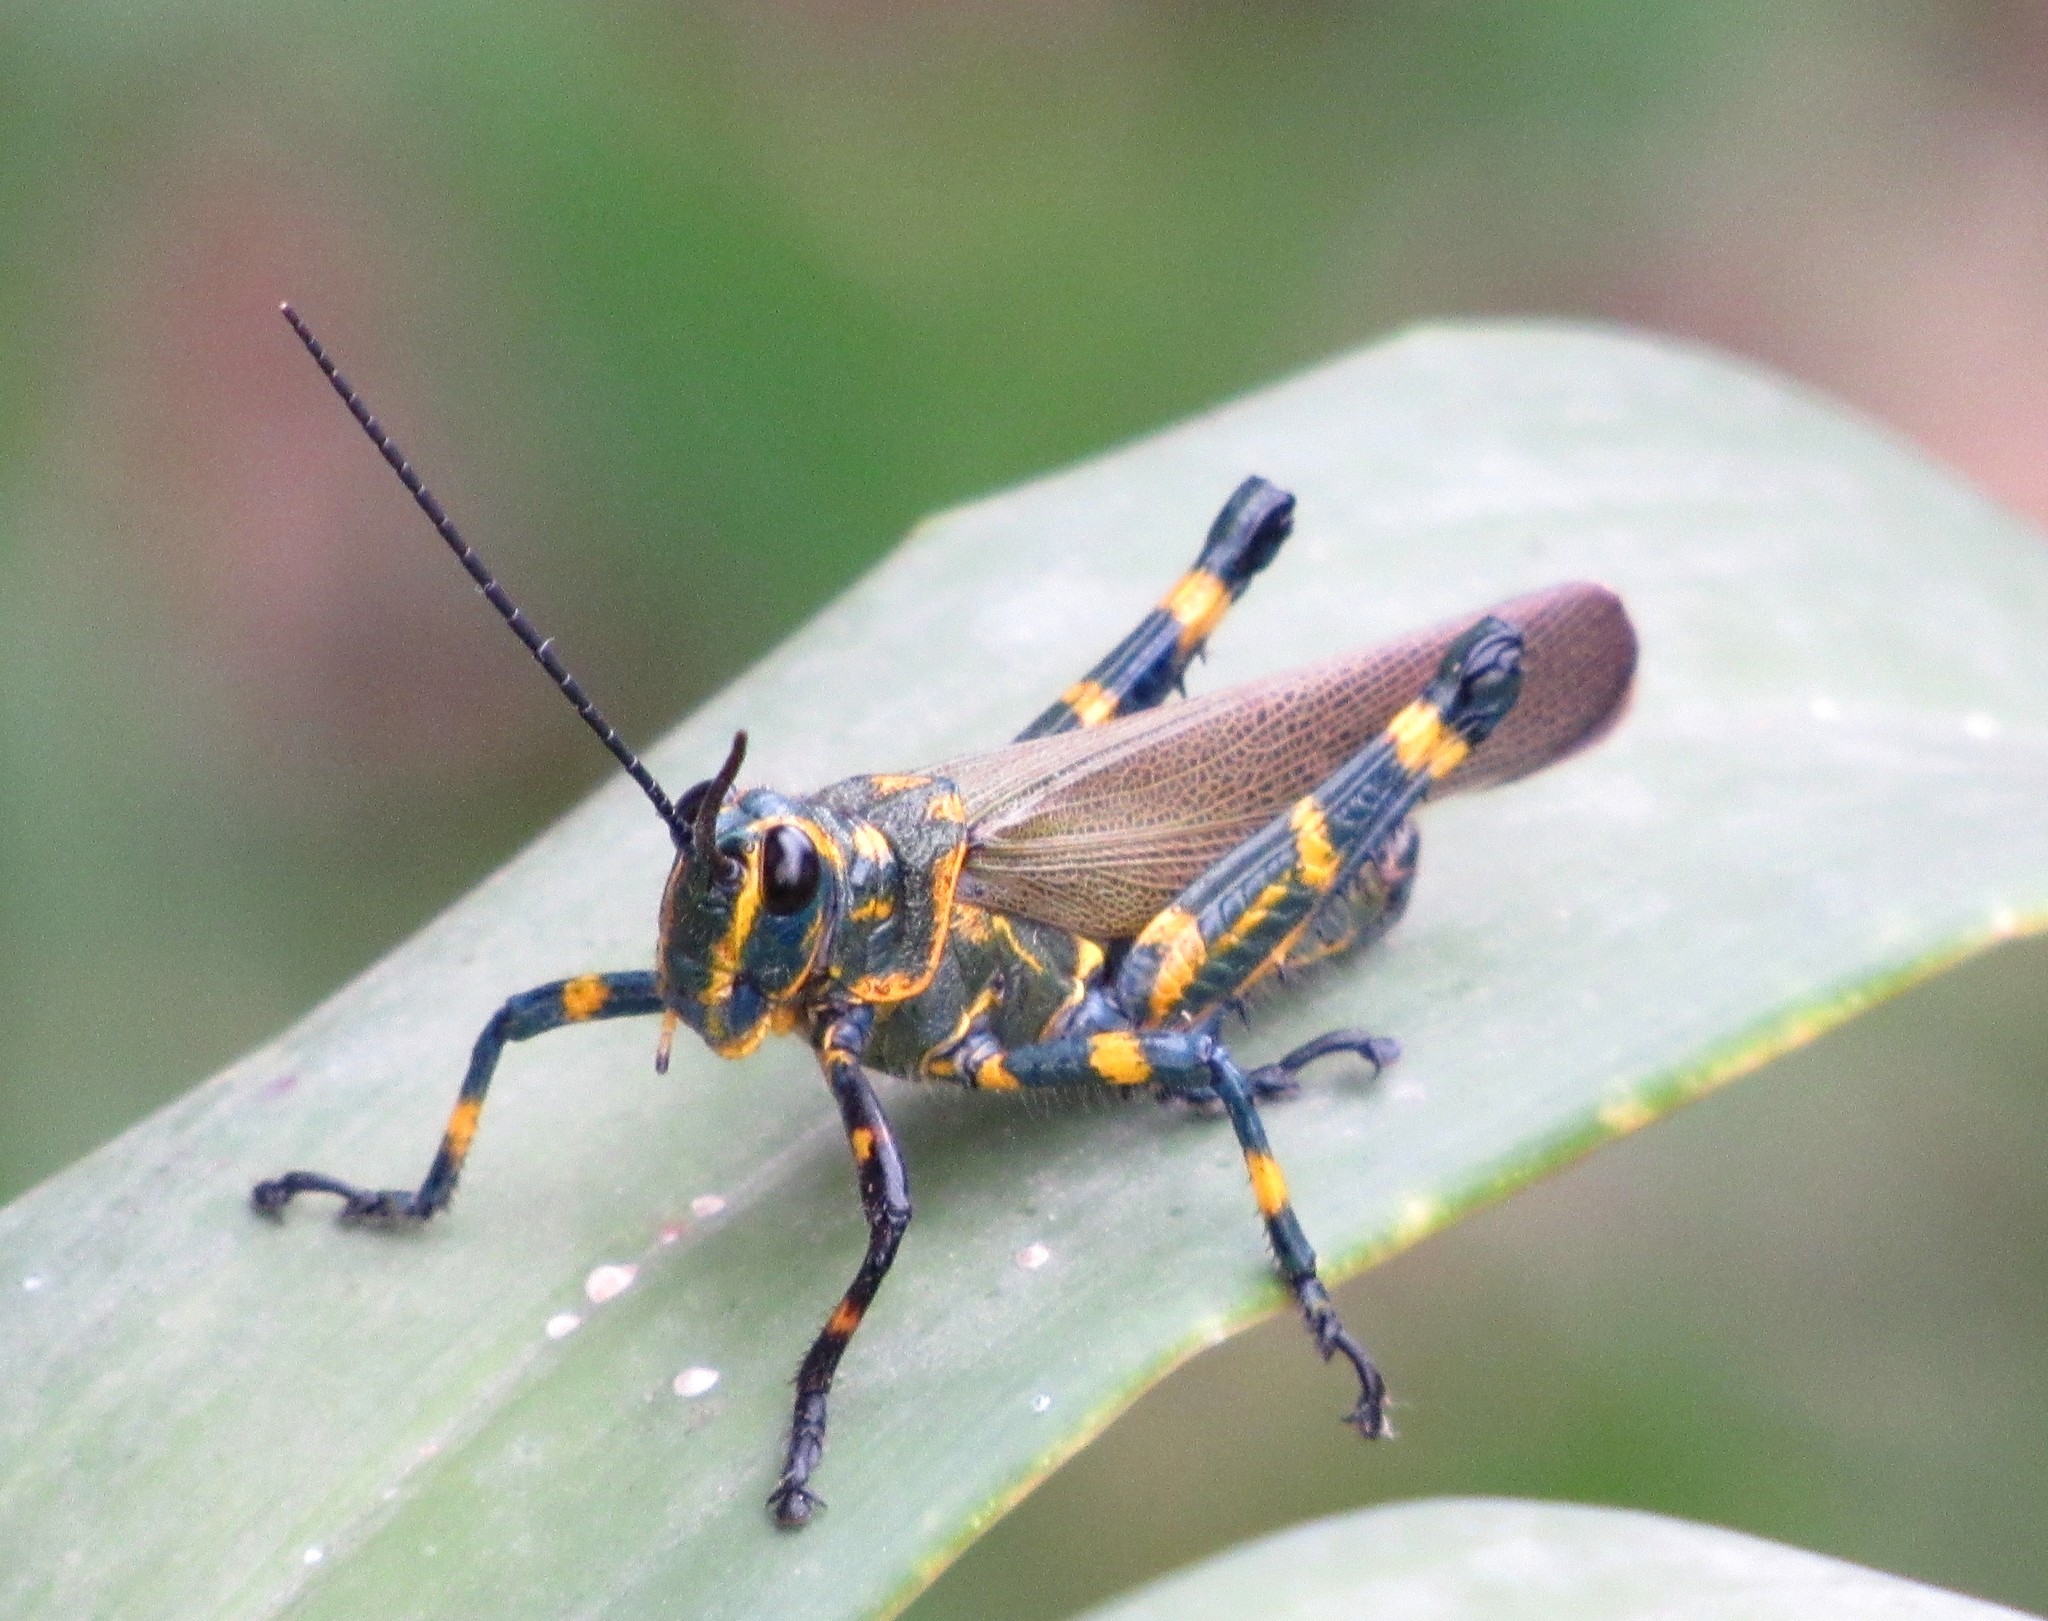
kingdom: Animalia
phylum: Arthropoda
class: Insecta
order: Orthoptera
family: Romaleidae
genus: Chromacris
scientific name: Chromacris speciosa
